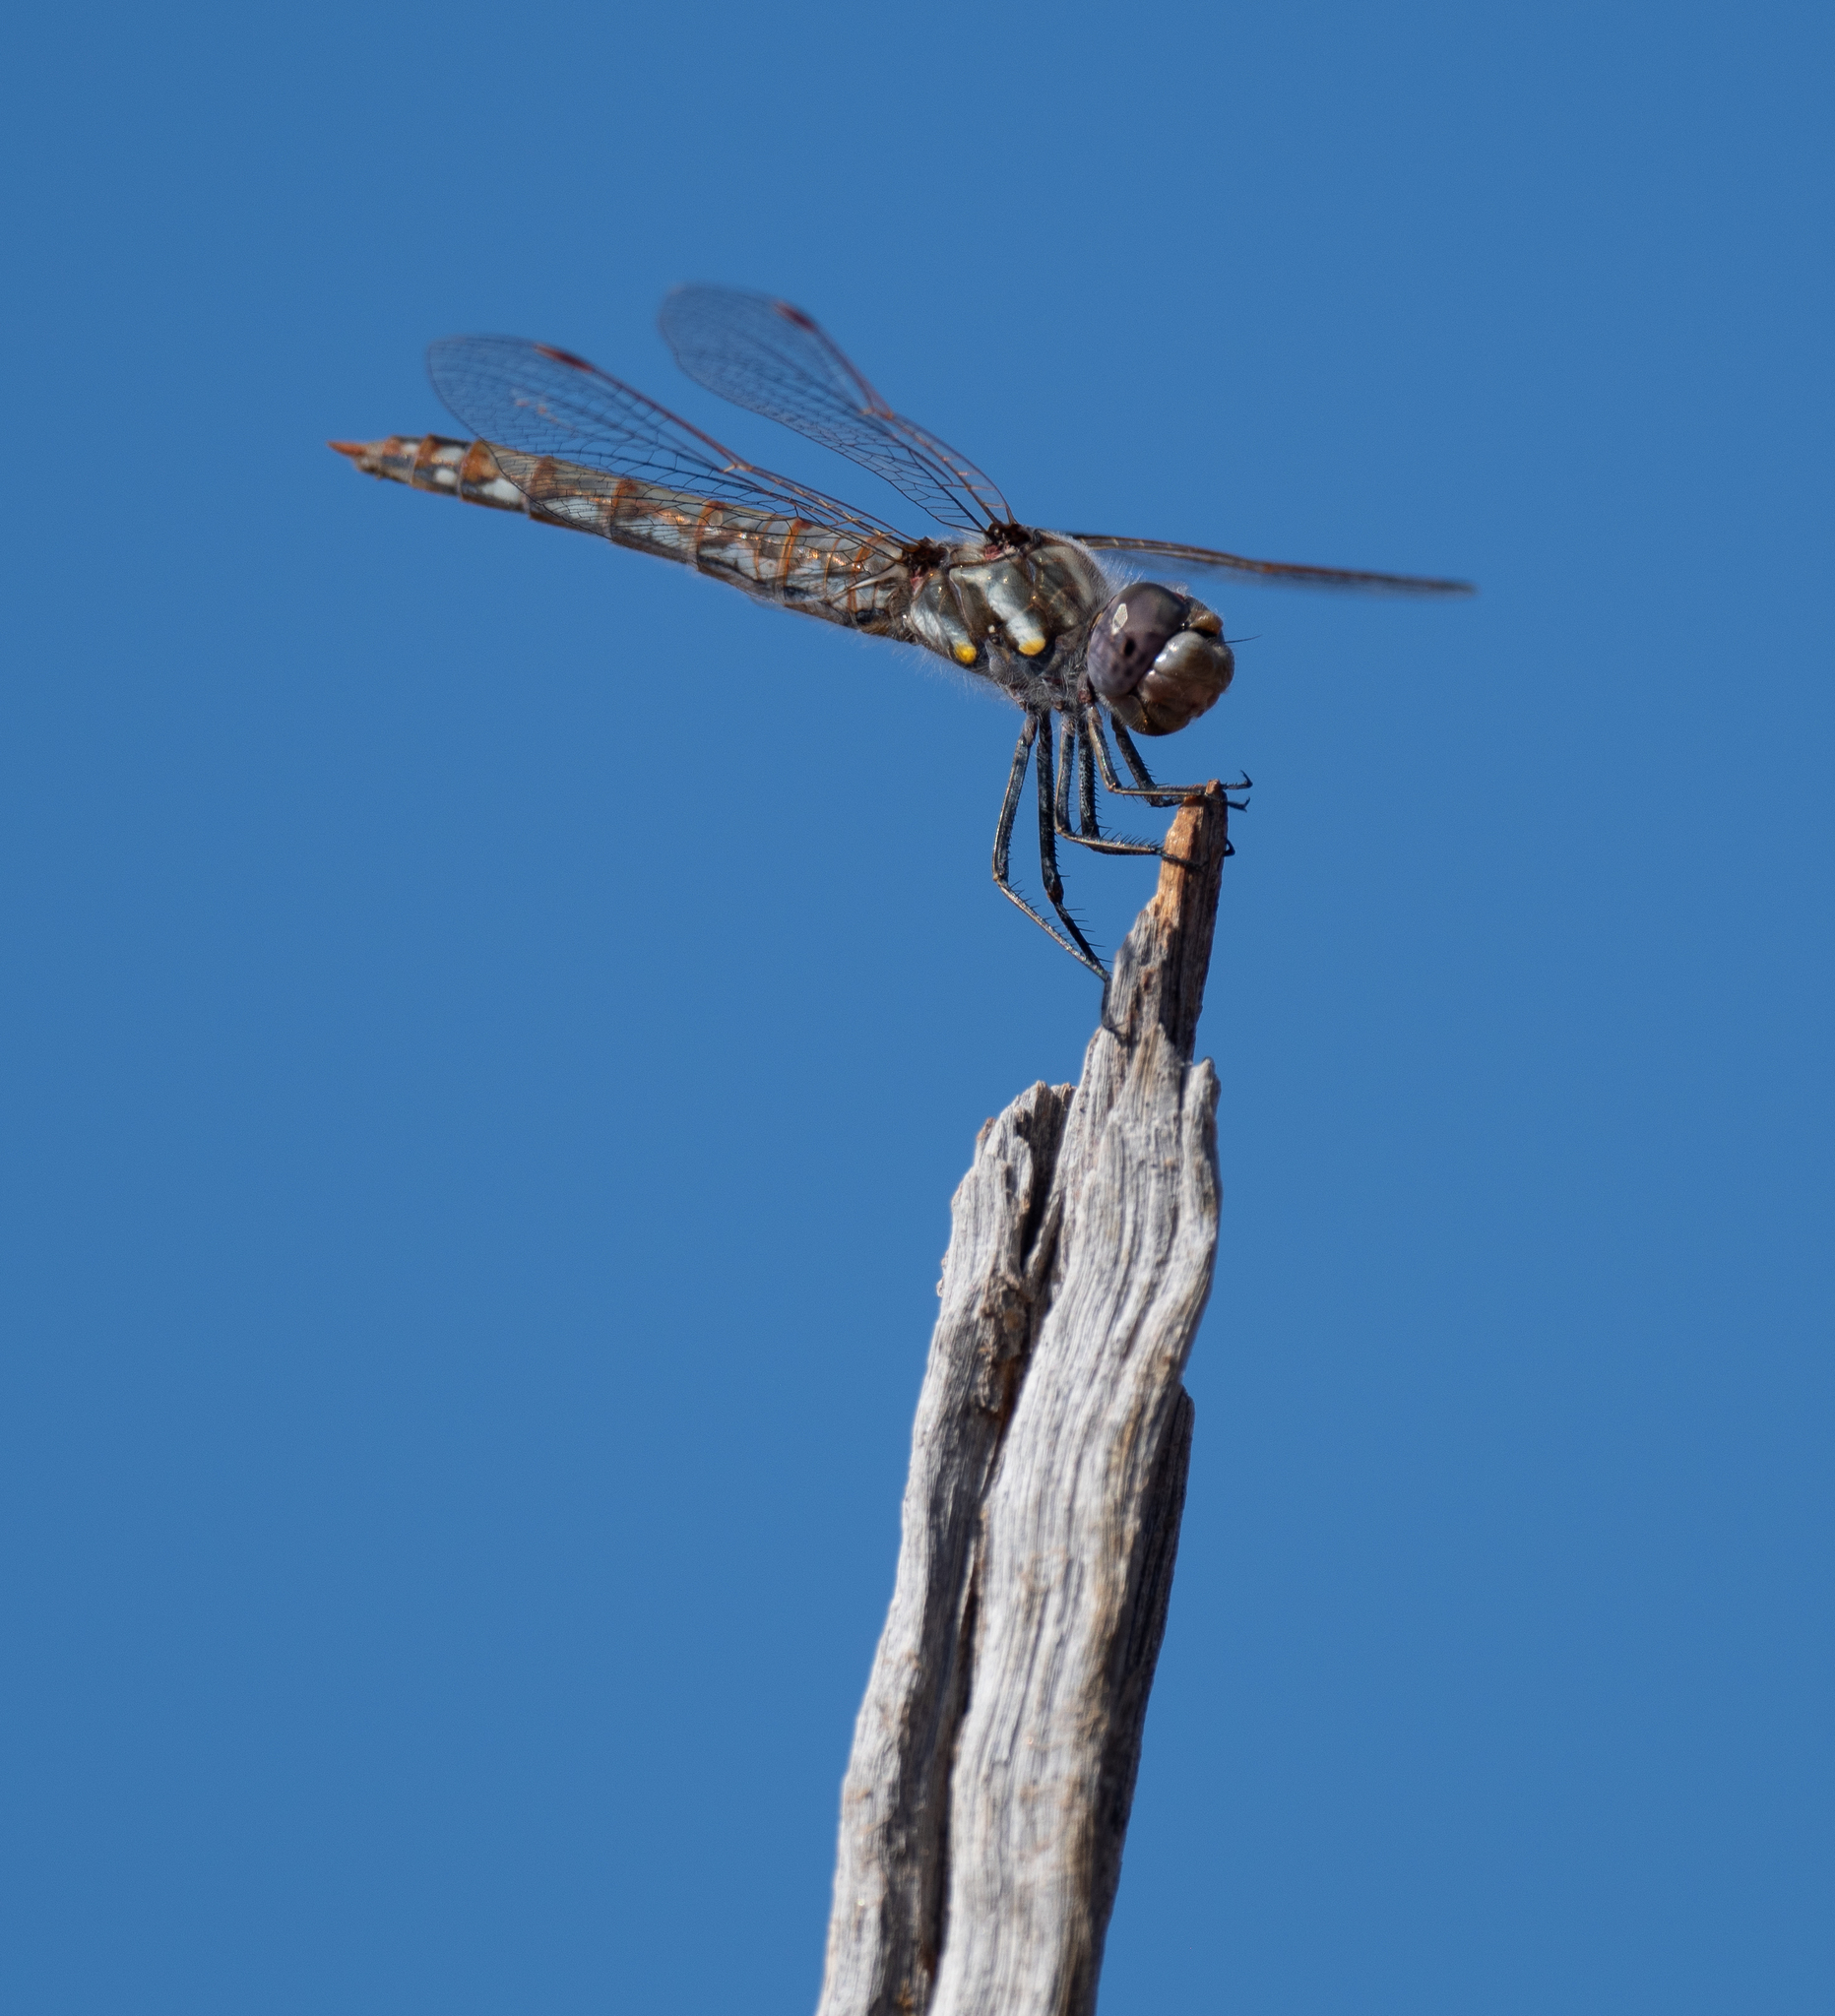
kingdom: Animalia
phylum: Arthropoda
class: Insecta
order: Odonata
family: Libellulidae
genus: Sympetrum
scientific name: Sympetrum corruptum
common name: Variegated meadowhawk
